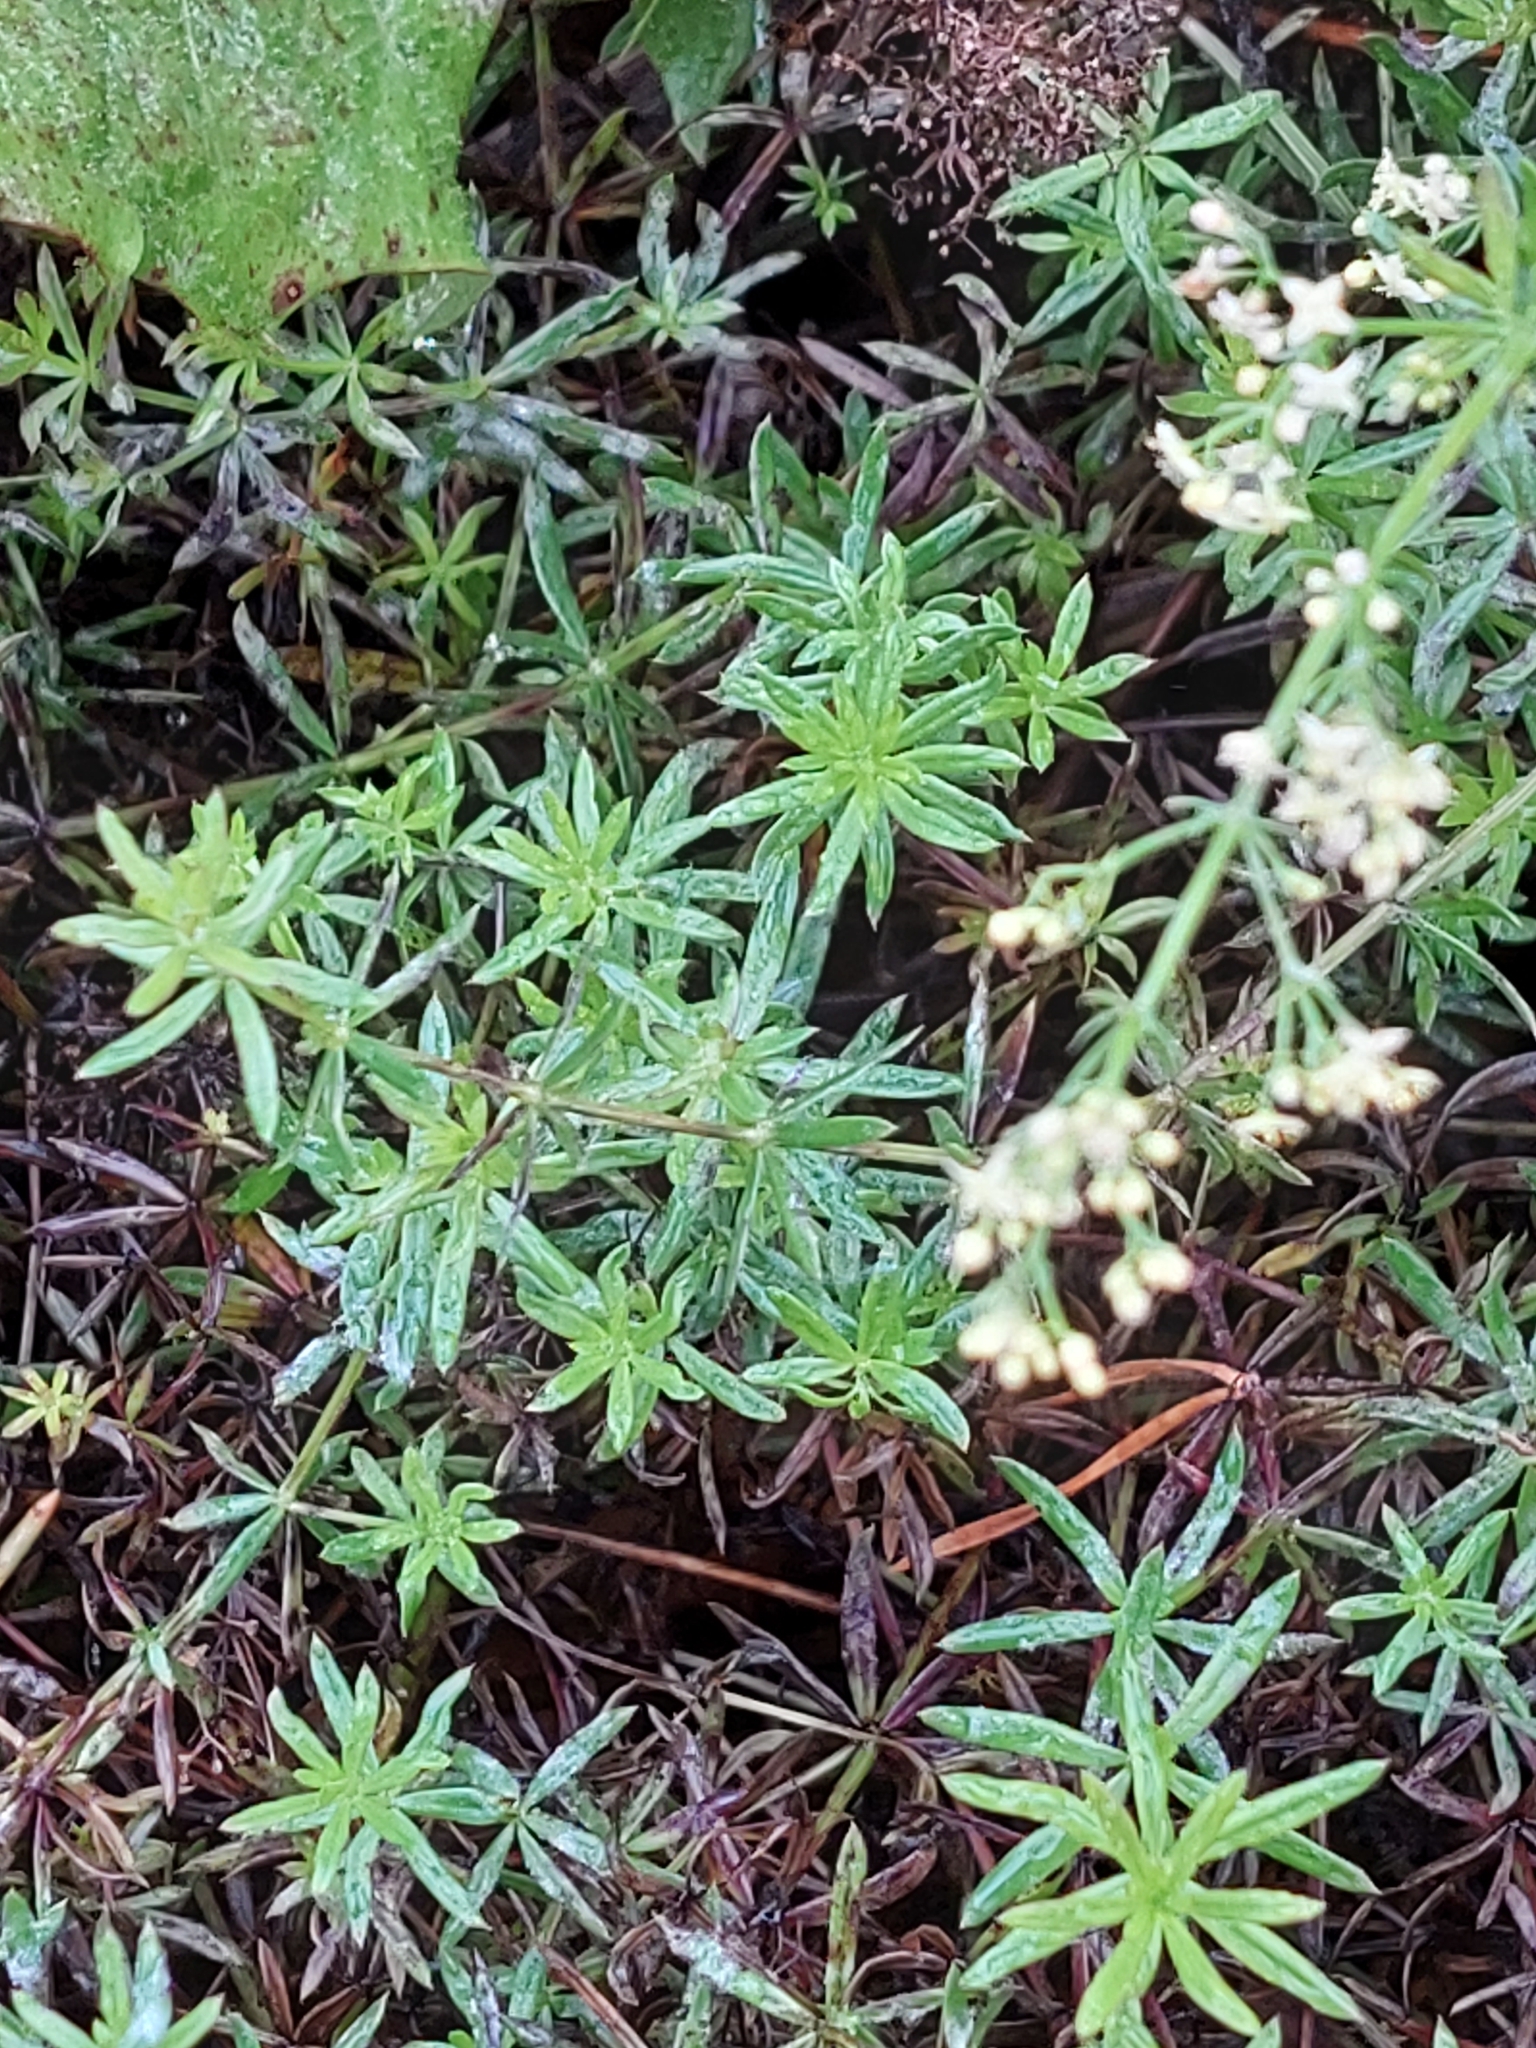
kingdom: Plantae
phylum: Tracheophyta
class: Magnoliopsida
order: Gentianales
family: Rubiaceae
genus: Galium
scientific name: Galium mollugo
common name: Hedge bedstraw
